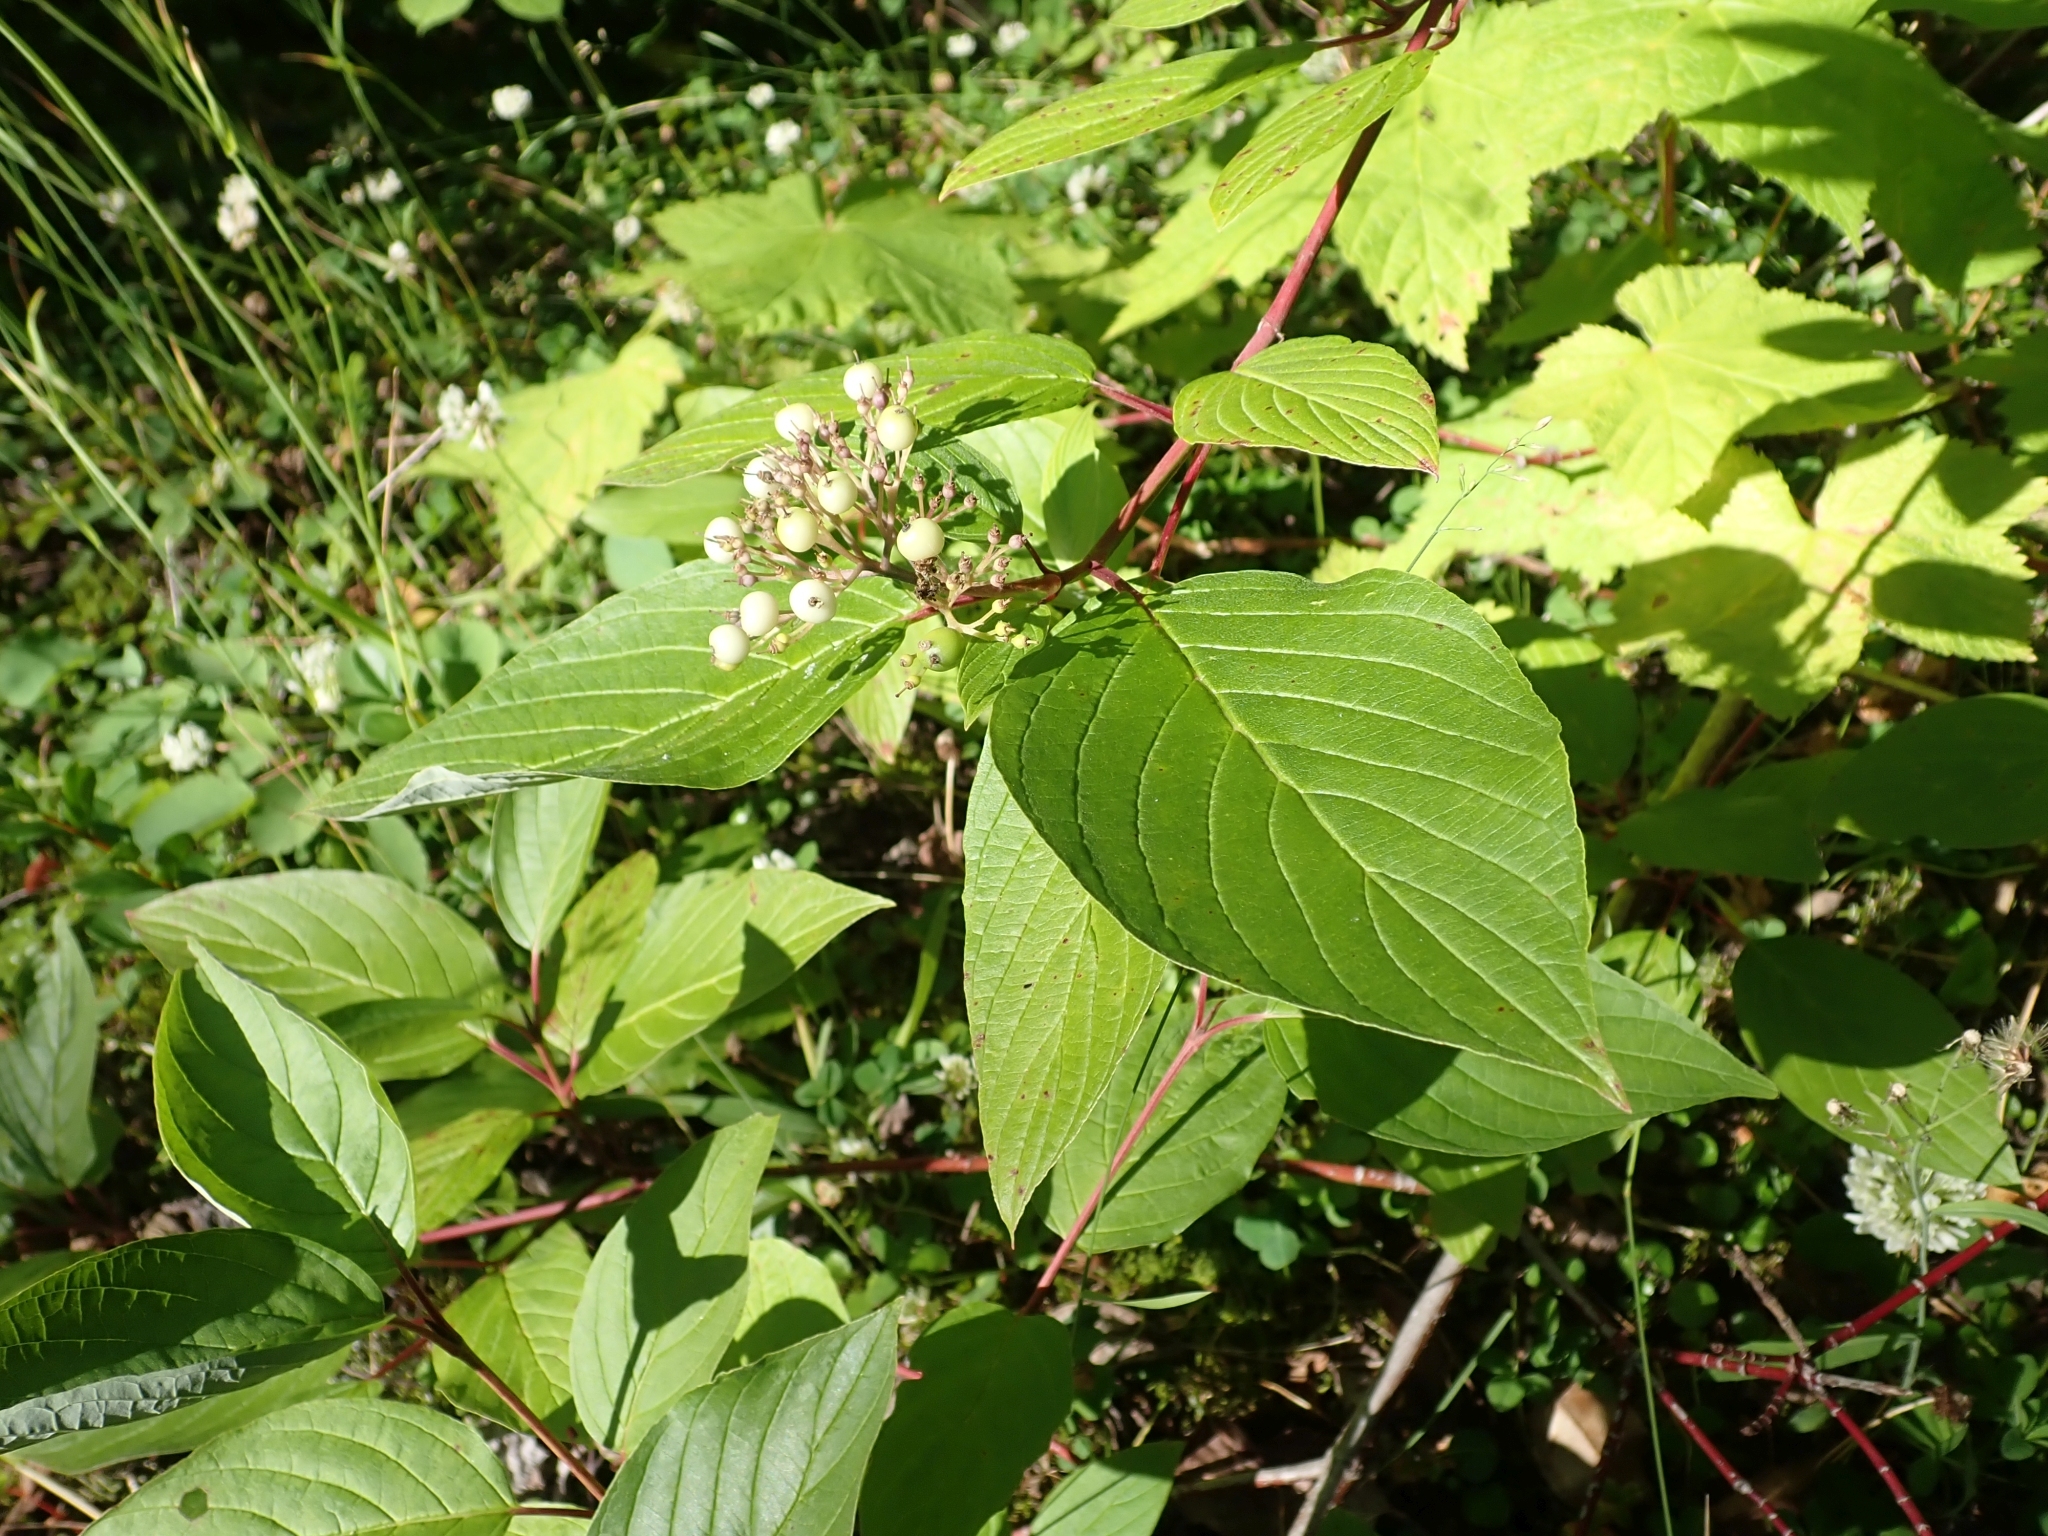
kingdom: Plantae
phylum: Tracheophyta
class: Magnoliopsida
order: Cornales
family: Cornaceae
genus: Cornus
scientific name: Cornus sericea
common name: Red-osier dogwood
